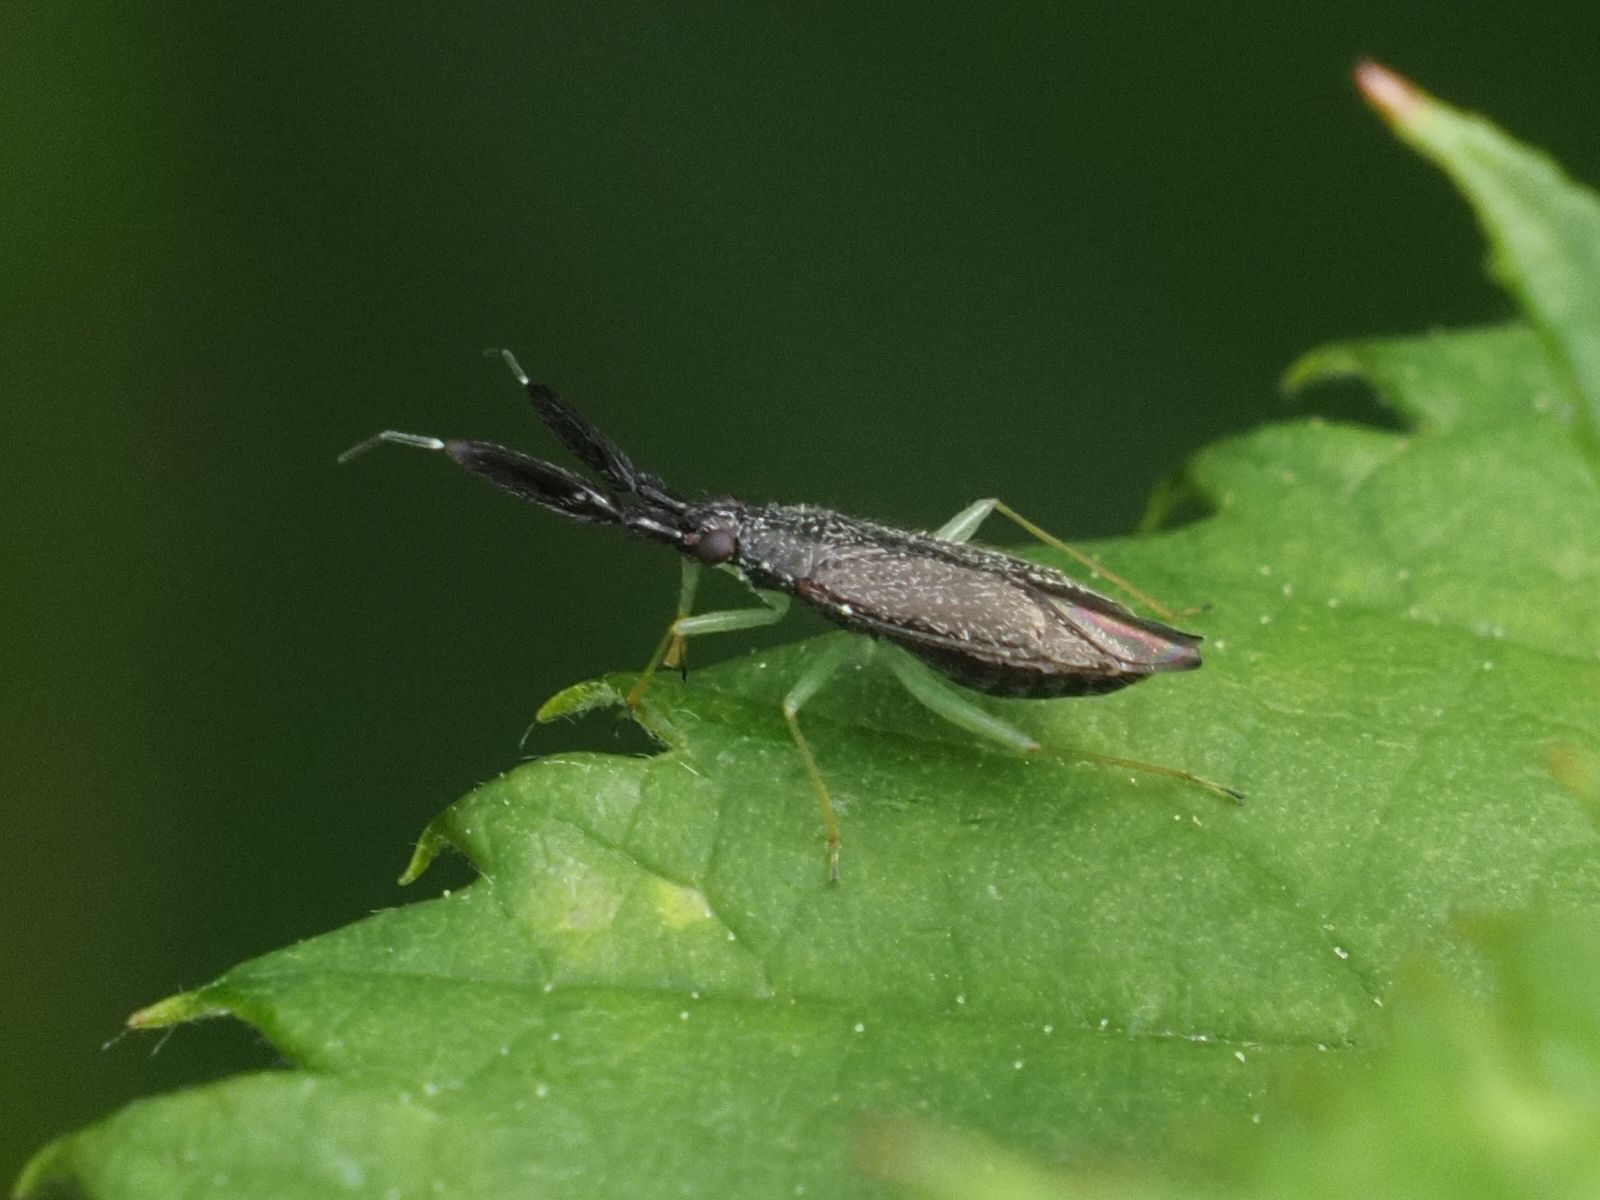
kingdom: Animalia
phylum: Arthropoda
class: Insecta
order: Hemiptera
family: Miridae
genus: Heterotoma
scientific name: Heterotoma planicornis
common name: Plant bug
